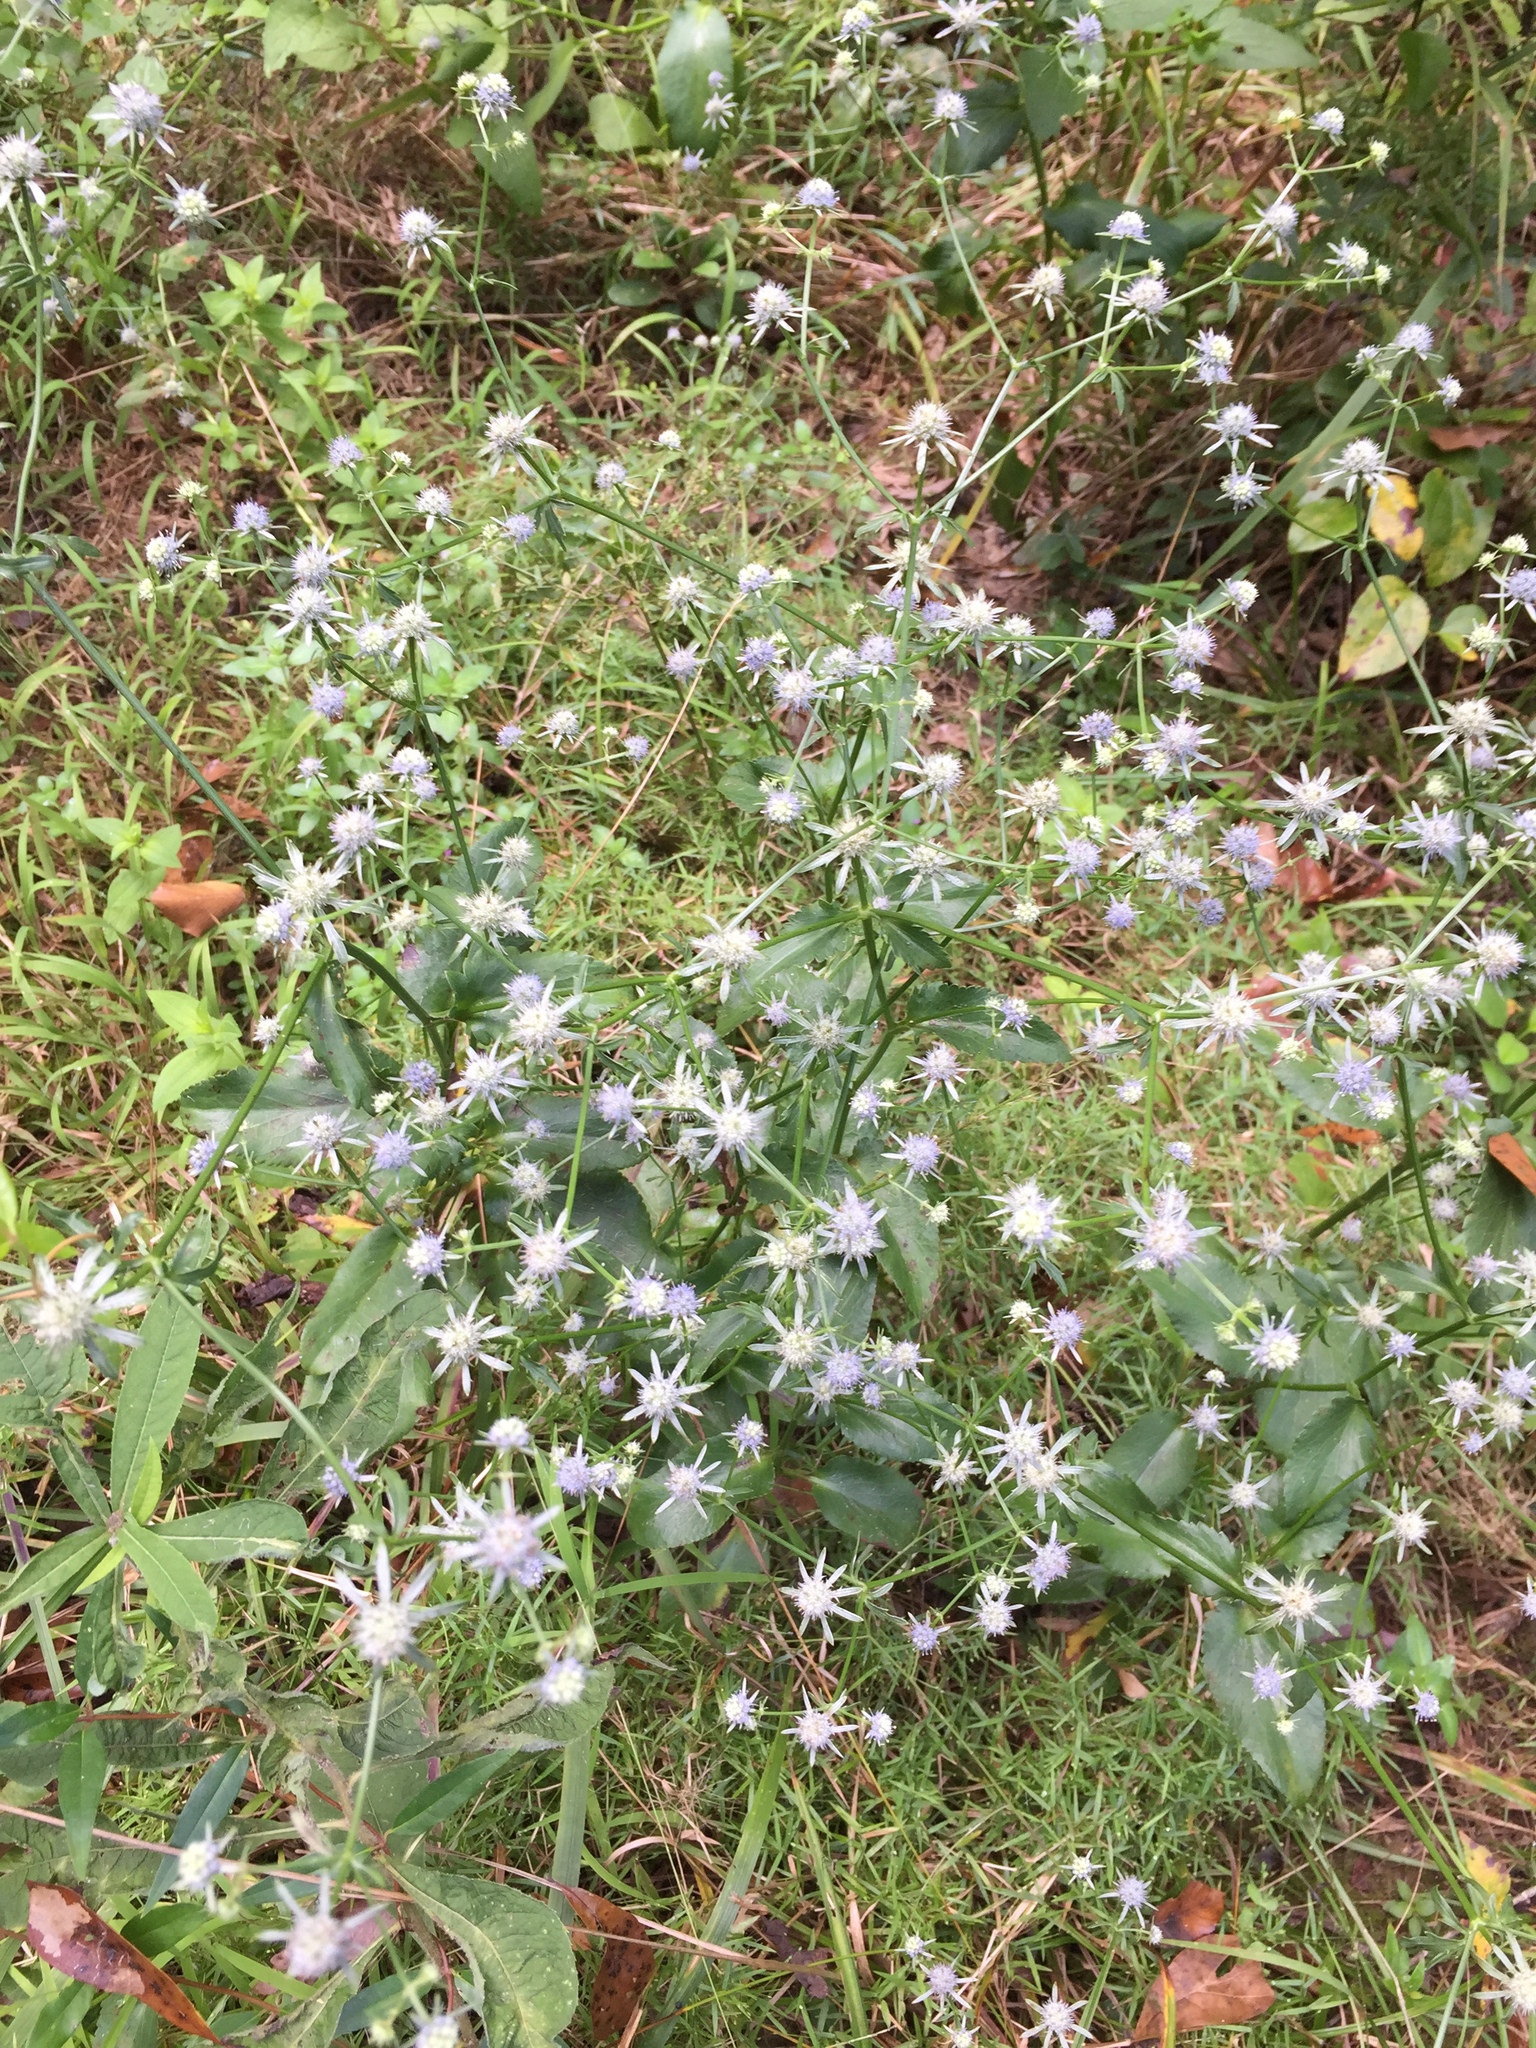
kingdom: Plantae
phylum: Tracheophyta
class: Magnoliopsida
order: Apiales
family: Apiaceae
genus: Eryngium
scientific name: Eryngium integrifolium
